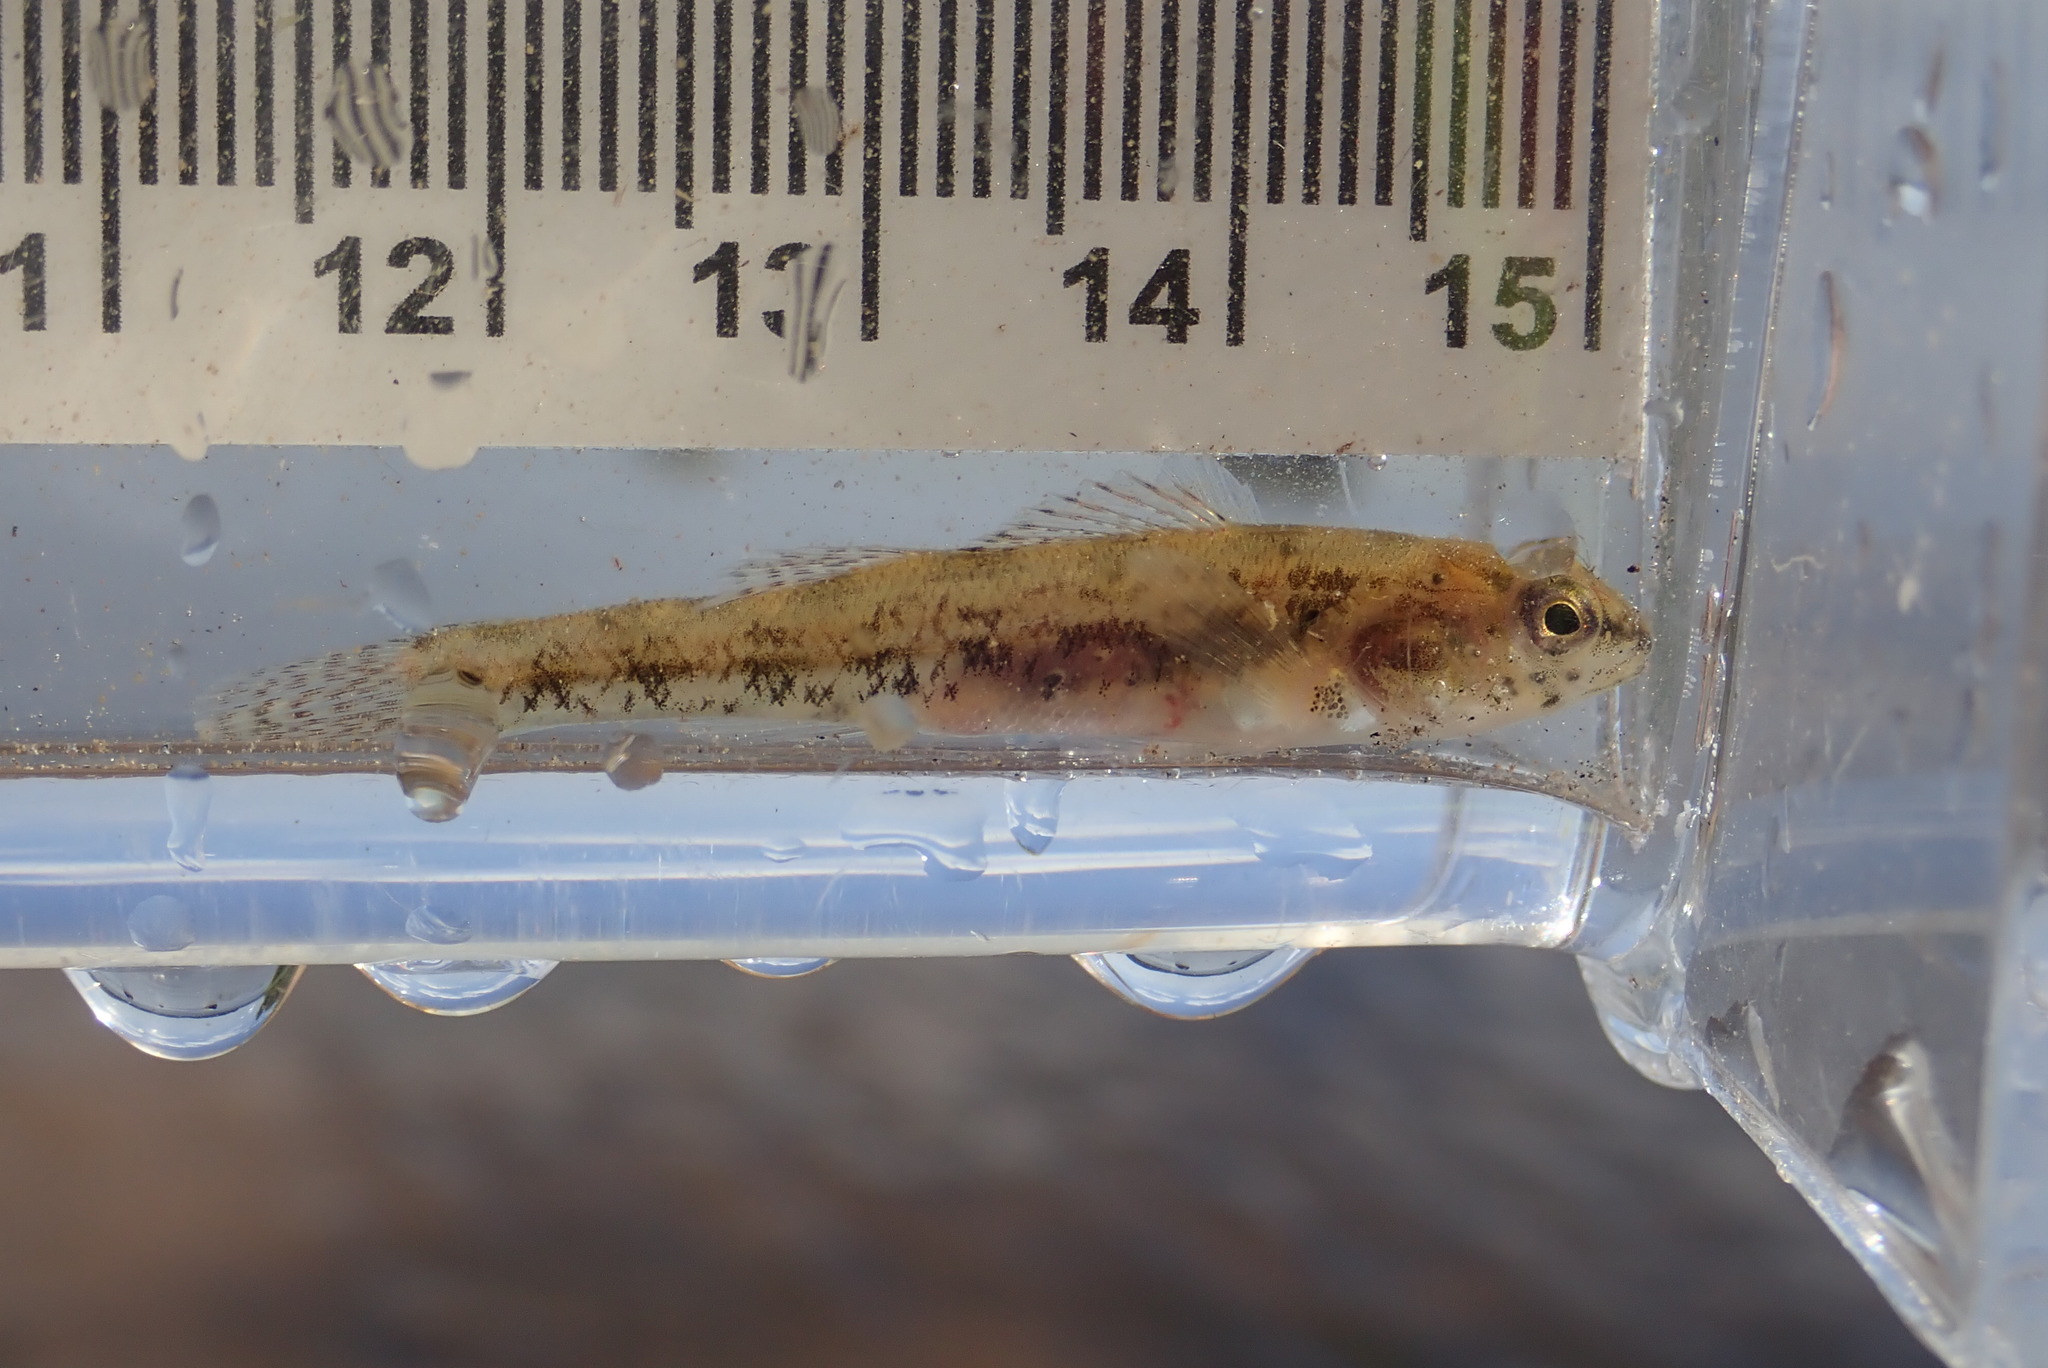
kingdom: Animalia
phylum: Chordata
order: Perciformes
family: Percidae
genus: Etheostoma
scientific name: Etheostoma exile
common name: Iowa darter
